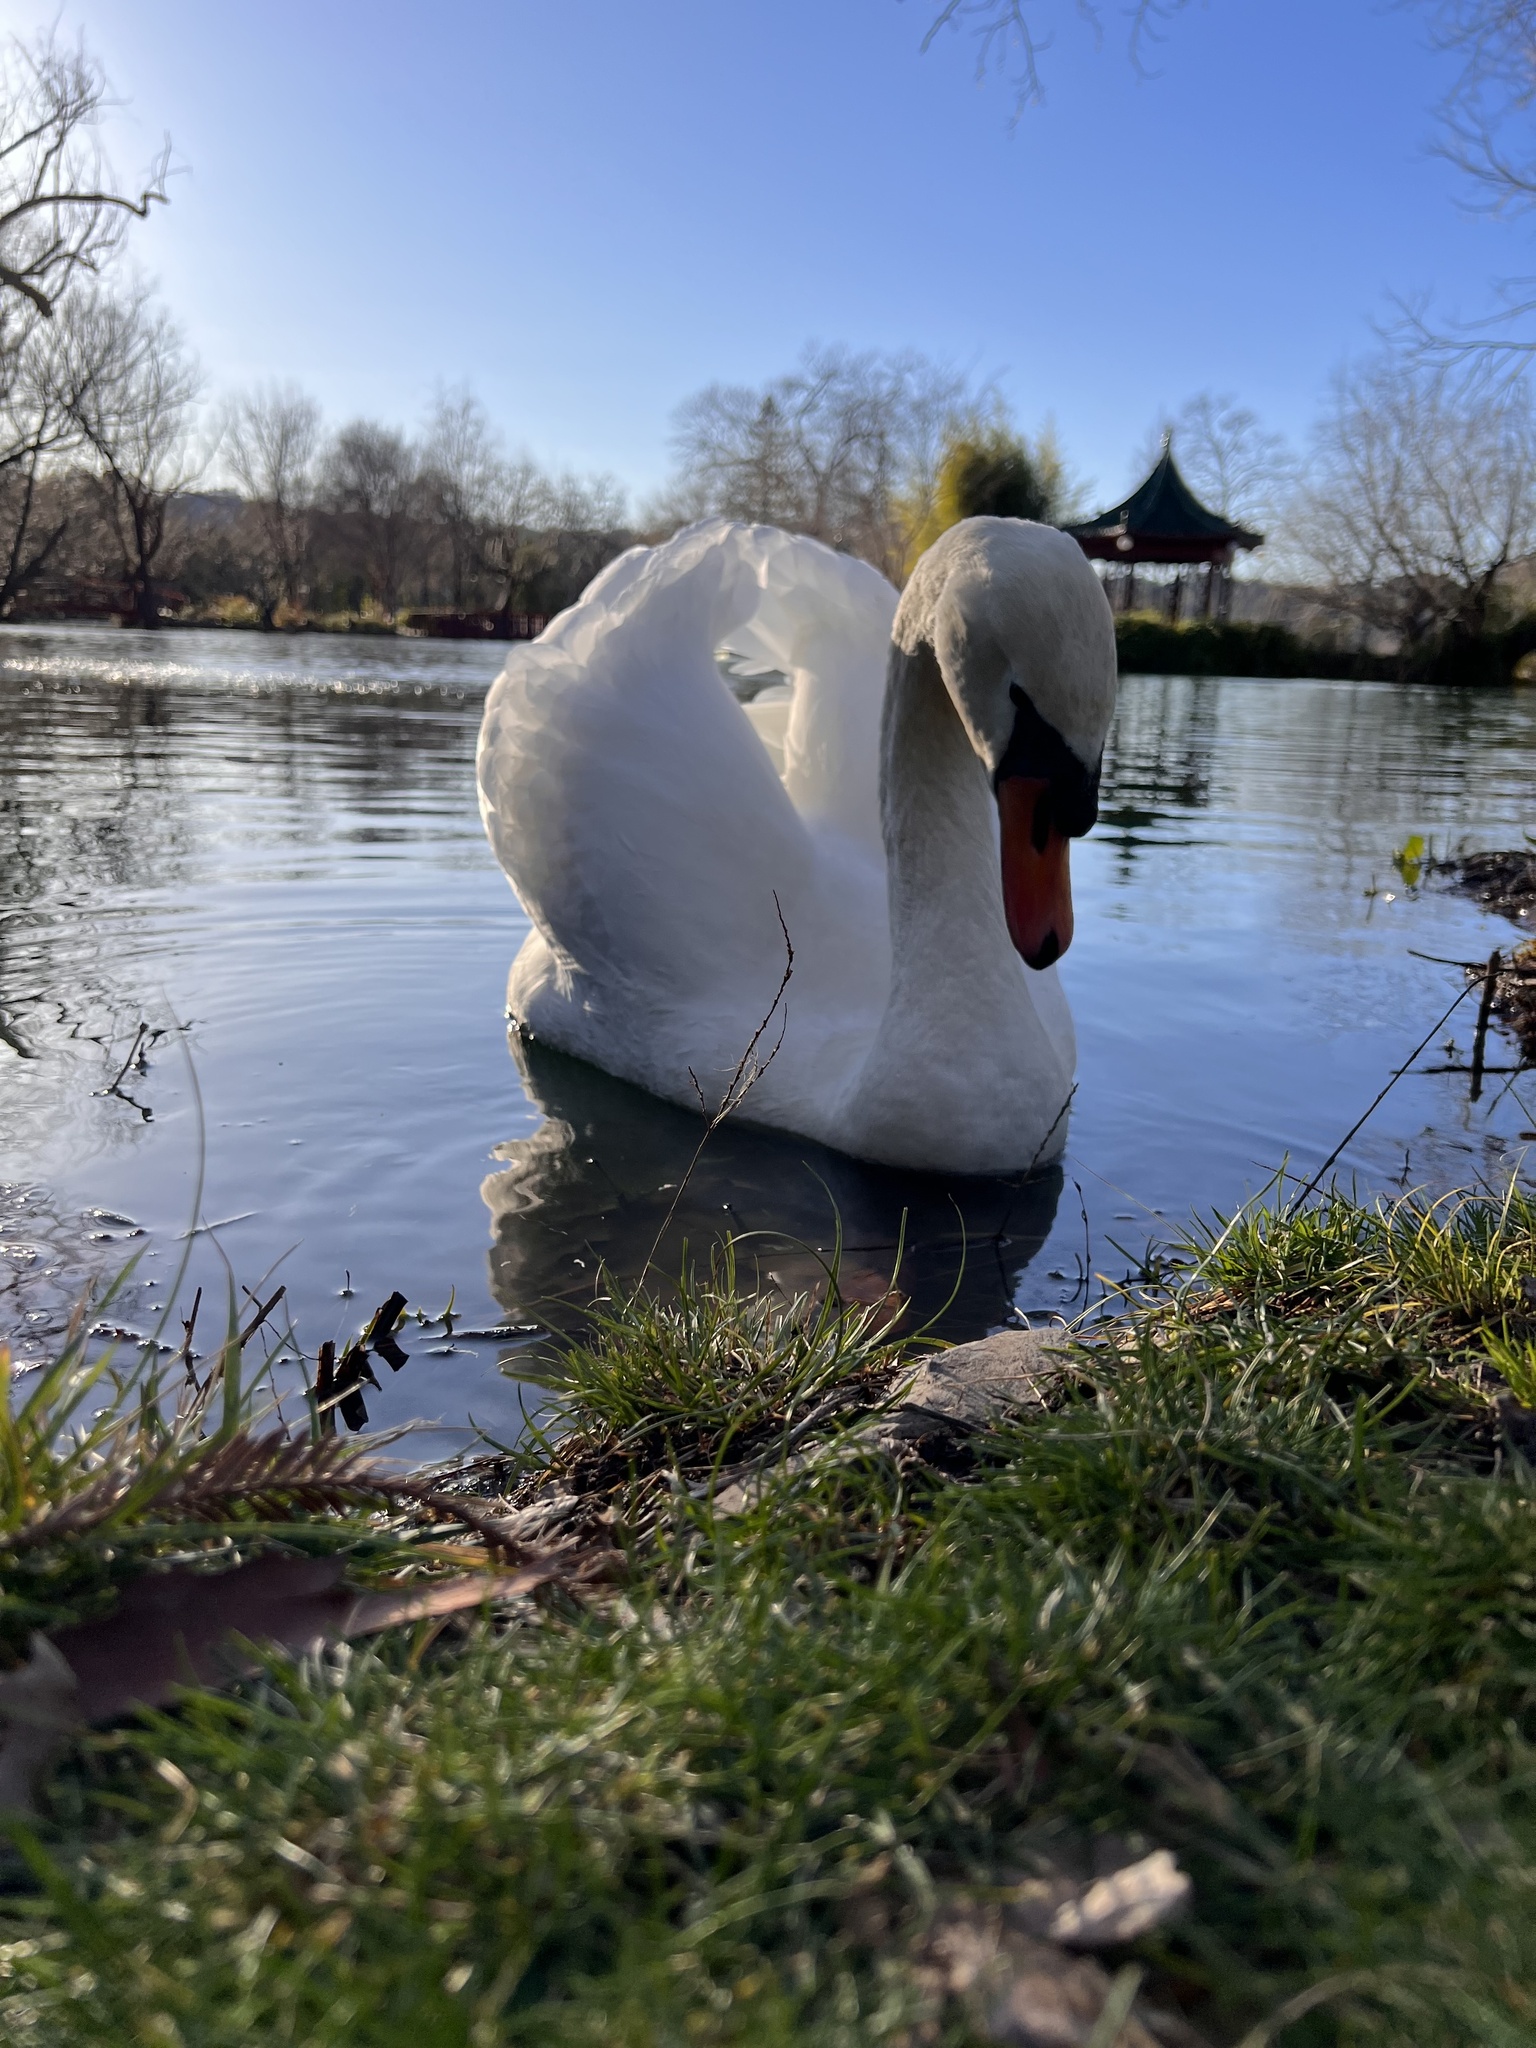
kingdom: Animalia
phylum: Chordata
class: Aves
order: Anseriformes
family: Anatidae
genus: Cygnus
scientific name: Cygnus olor
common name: Mute swan
